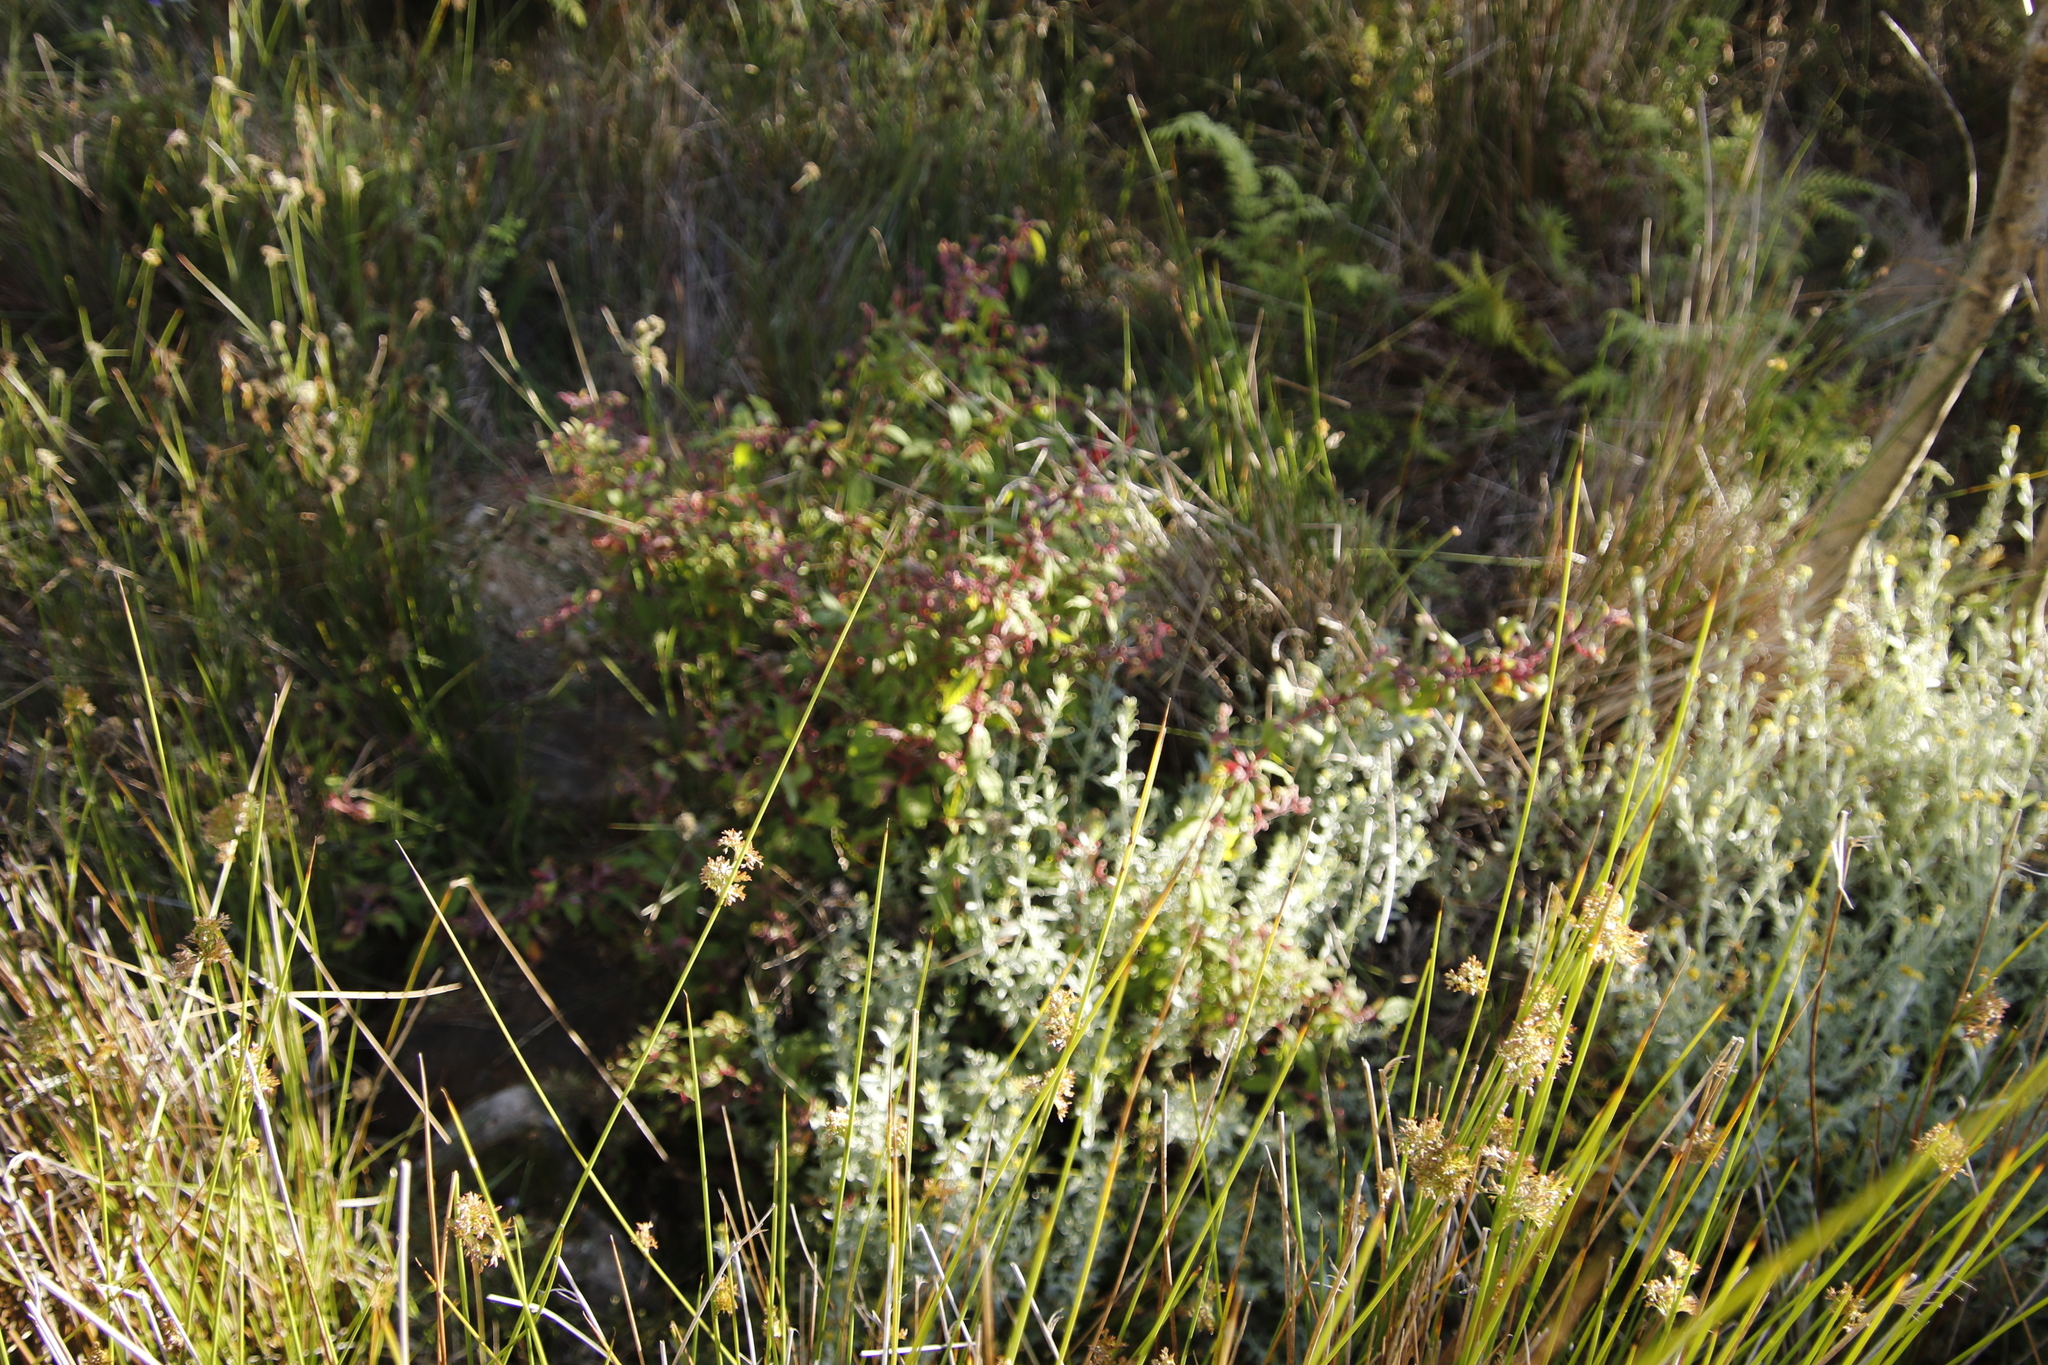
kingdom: Plantae
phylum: Tracheophyta
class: Magnoliopsida
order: Myrtales
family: Onagraceae
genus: Fuchsia
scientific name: Fuchsia magellanica
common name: Hardy fuchsia
